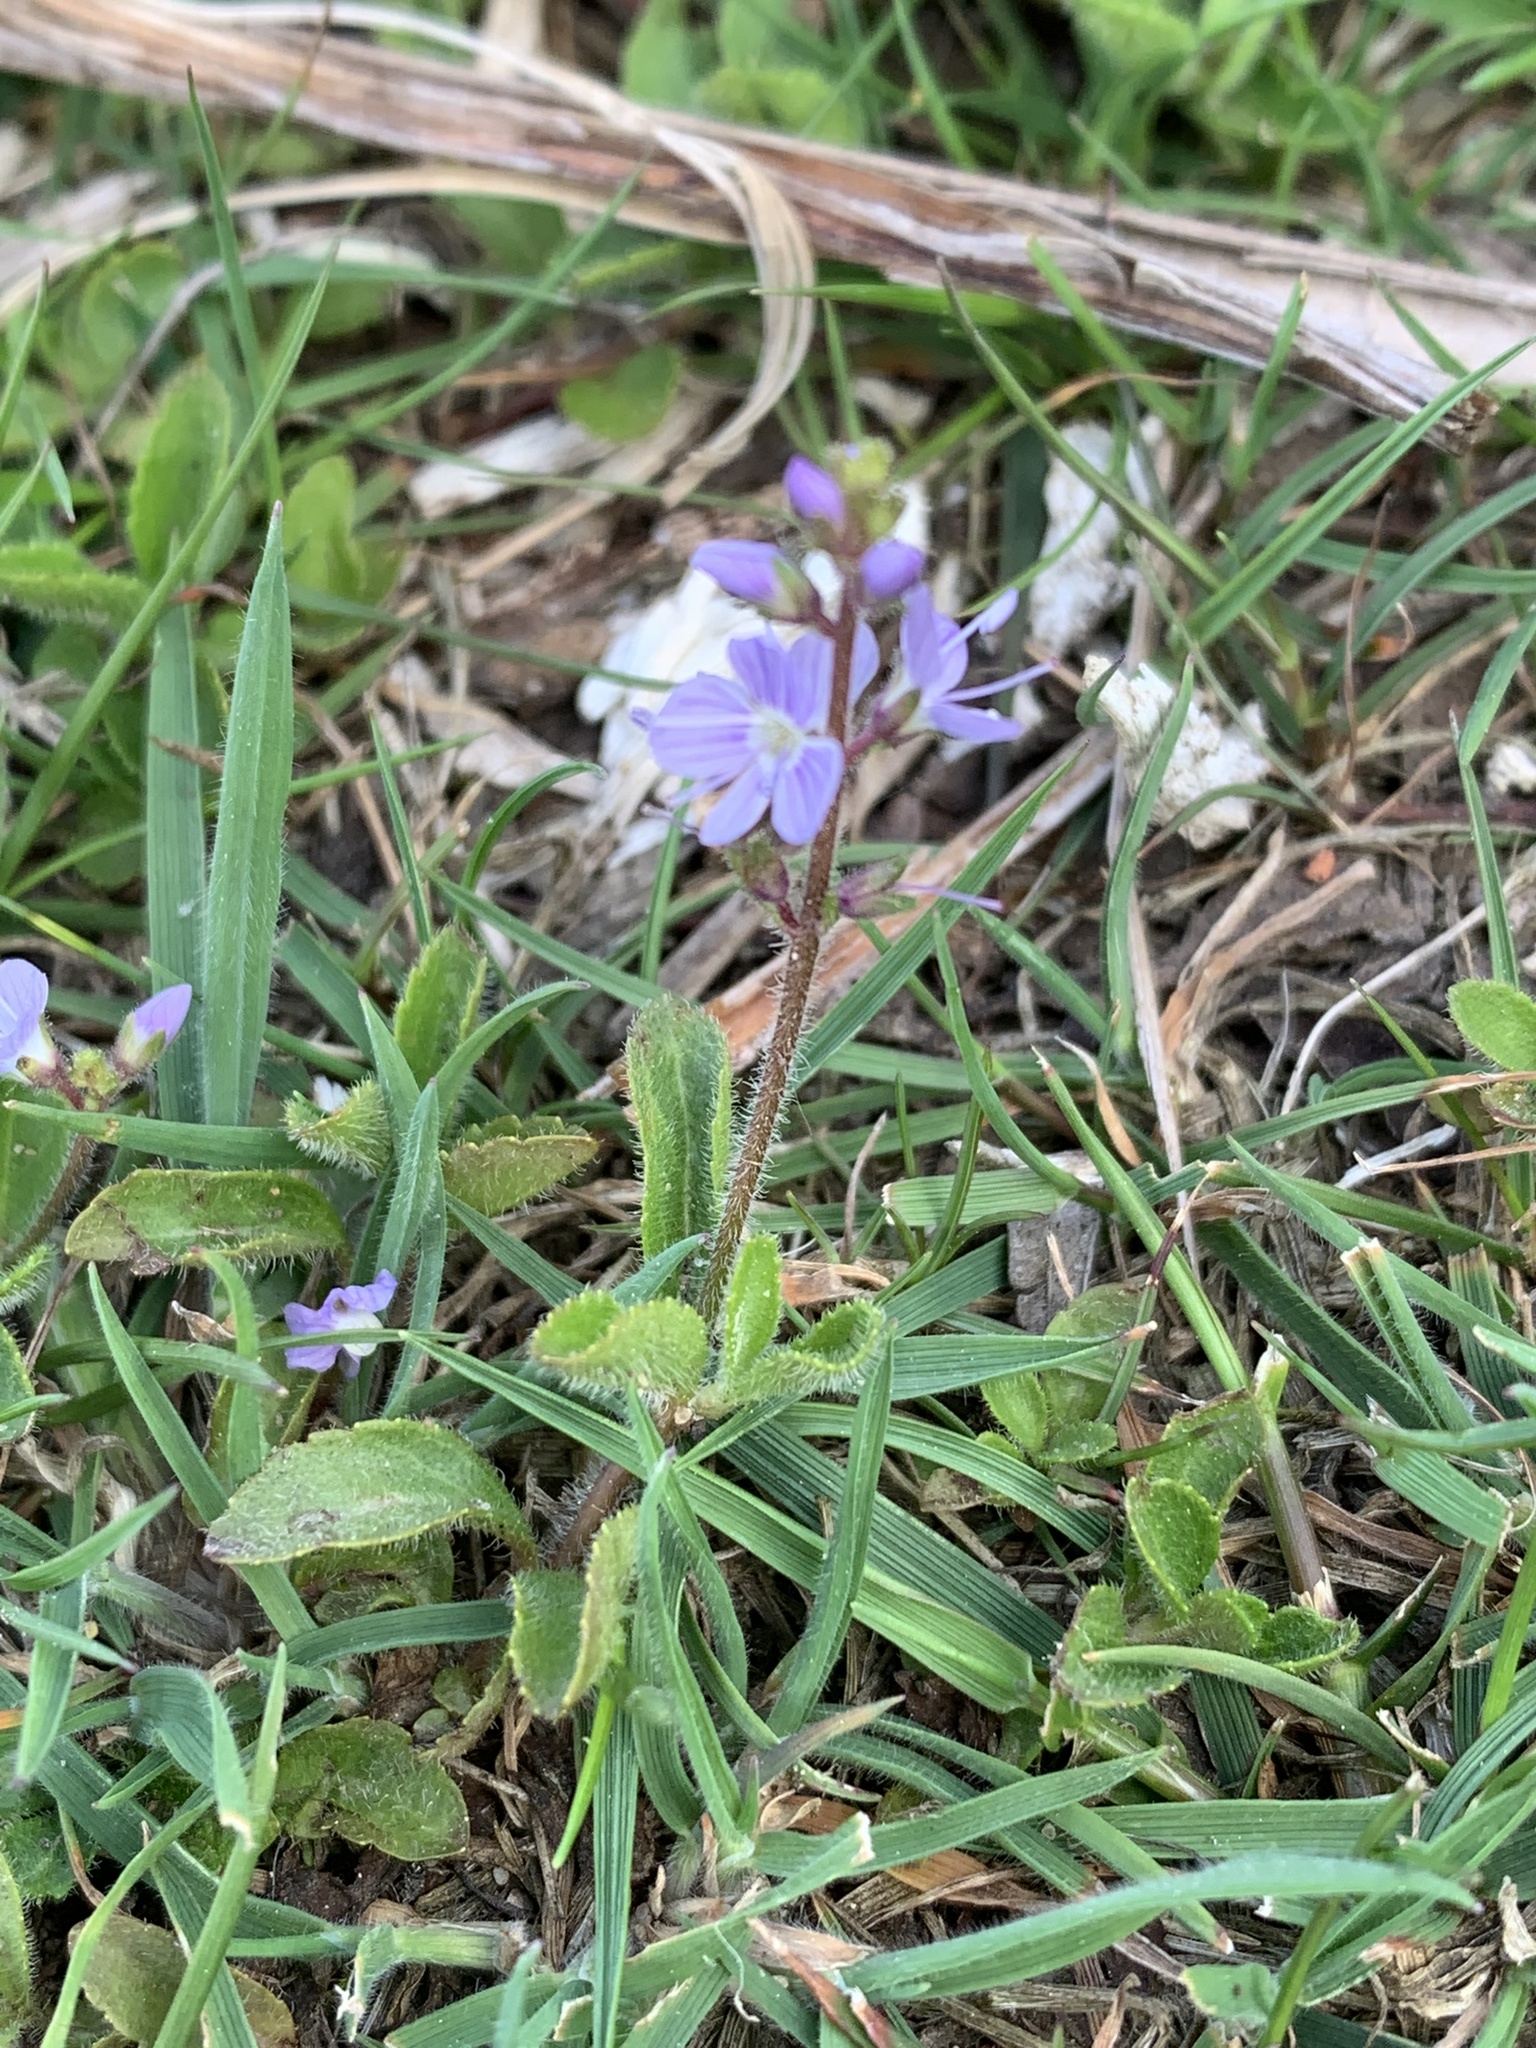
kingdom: Plantae
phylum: Tracheophyta
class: Magnoliopsida
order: Lamiales
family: Plantaginaceae
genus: Veronica
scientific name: Veronica officinalis
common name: Common speedwell
